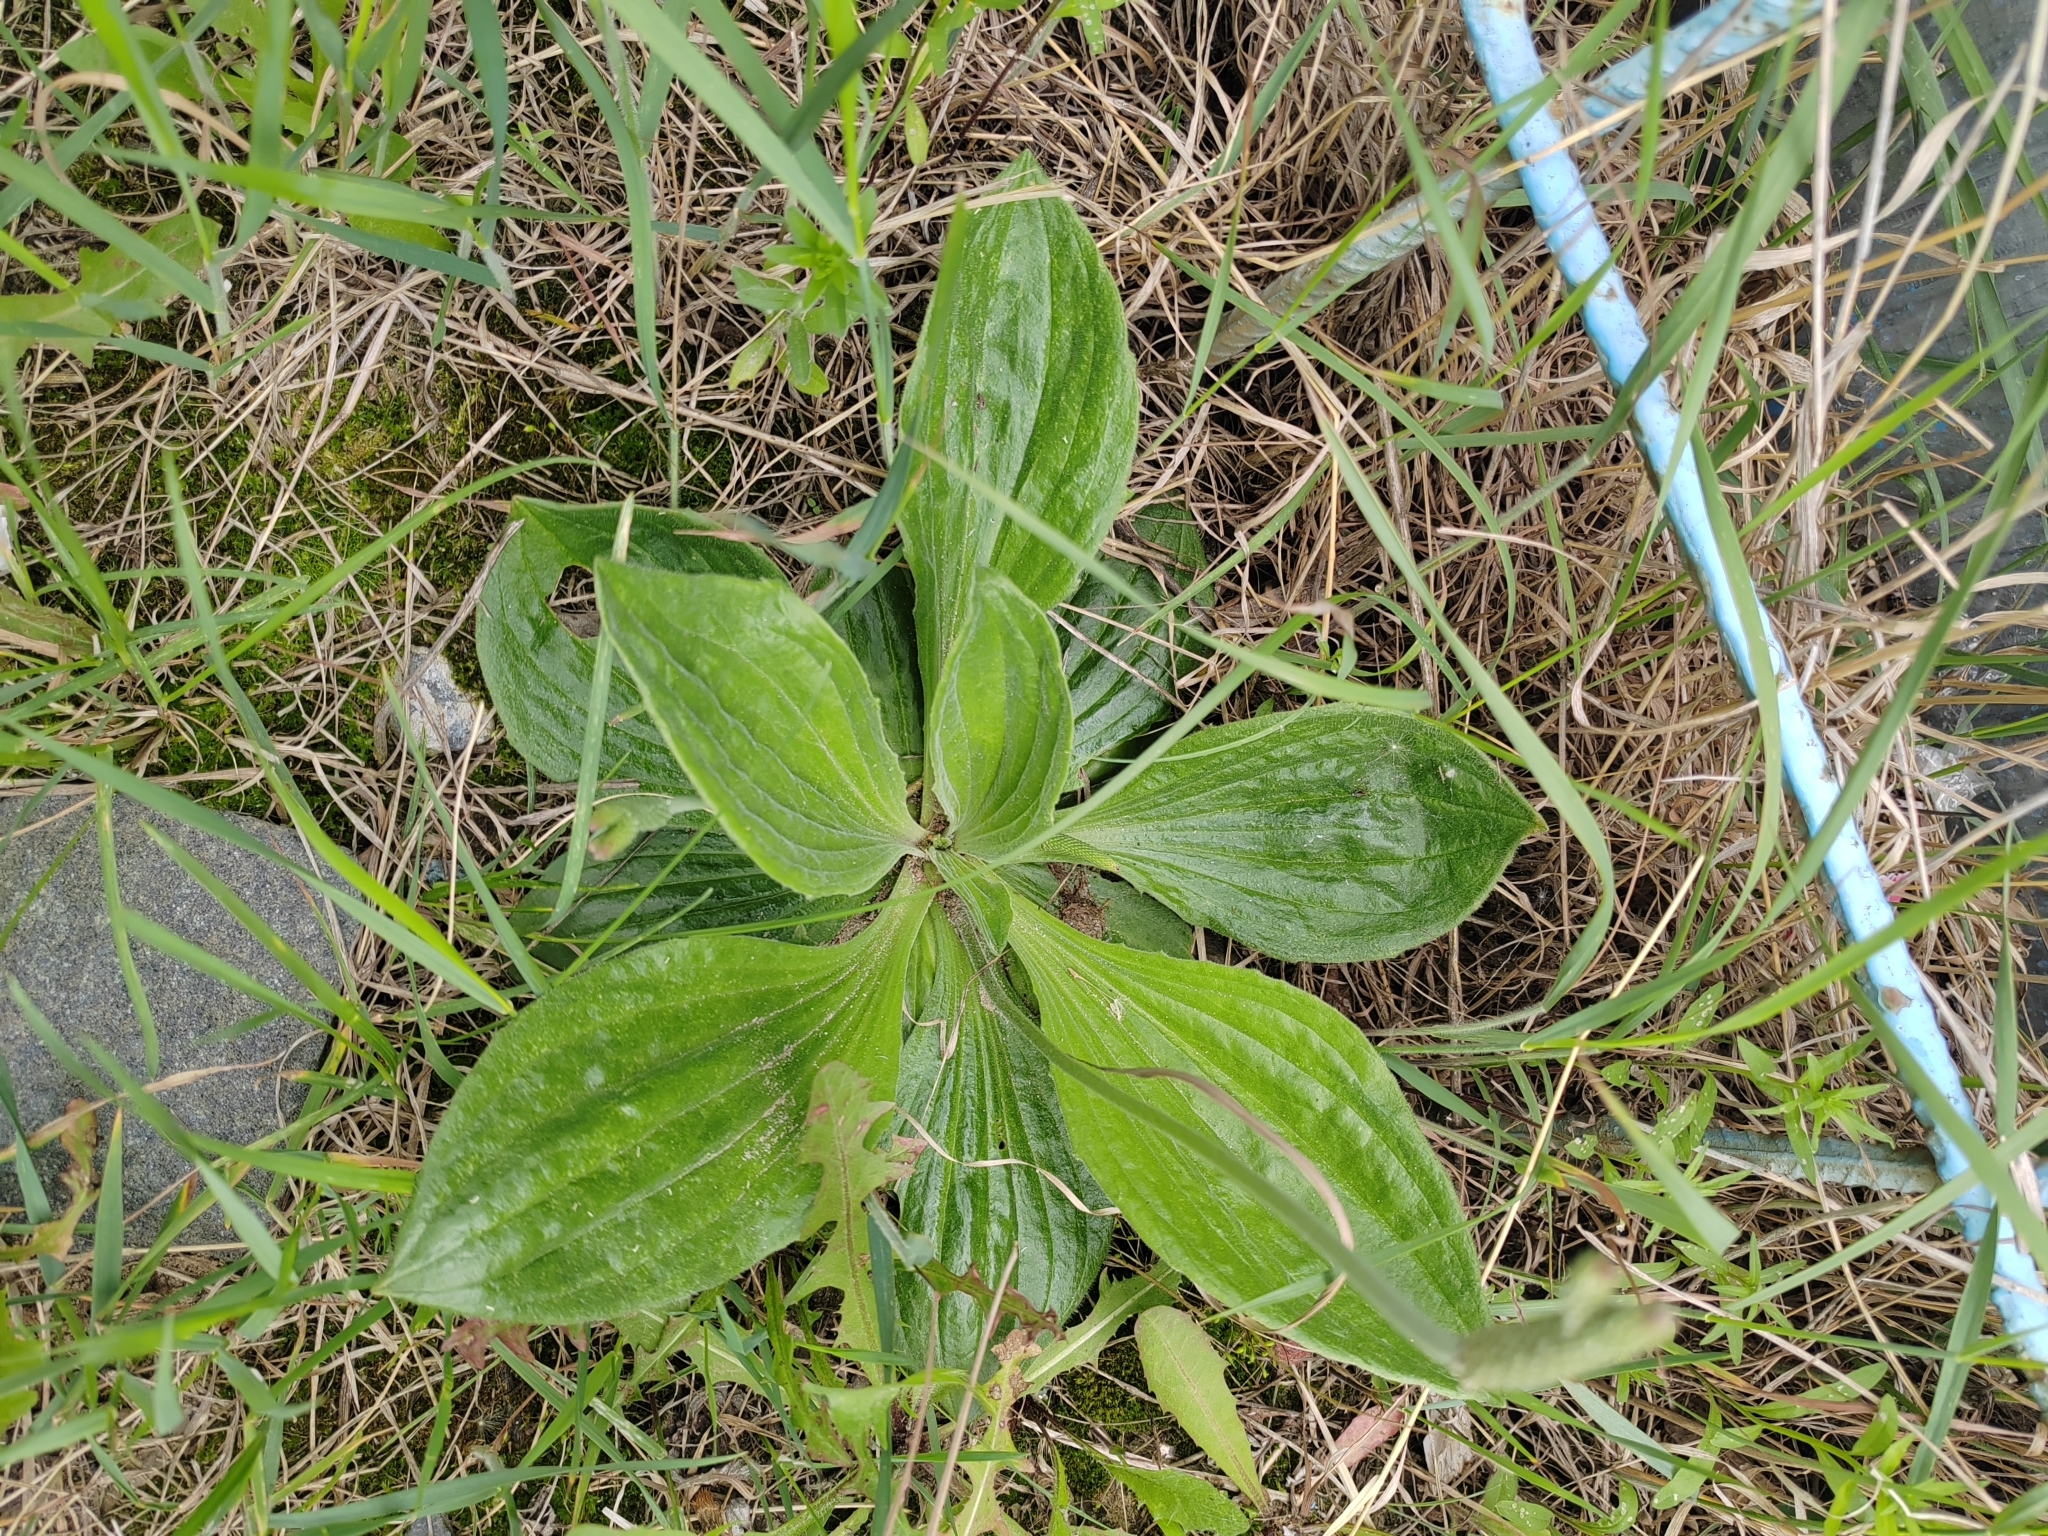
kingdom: Plantae
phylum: Tracheophyta
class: Magnoliopsida
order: Lamiales
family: Plantaginaceae
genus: Plantago
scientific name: Plantago media
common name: Hoary plantain
